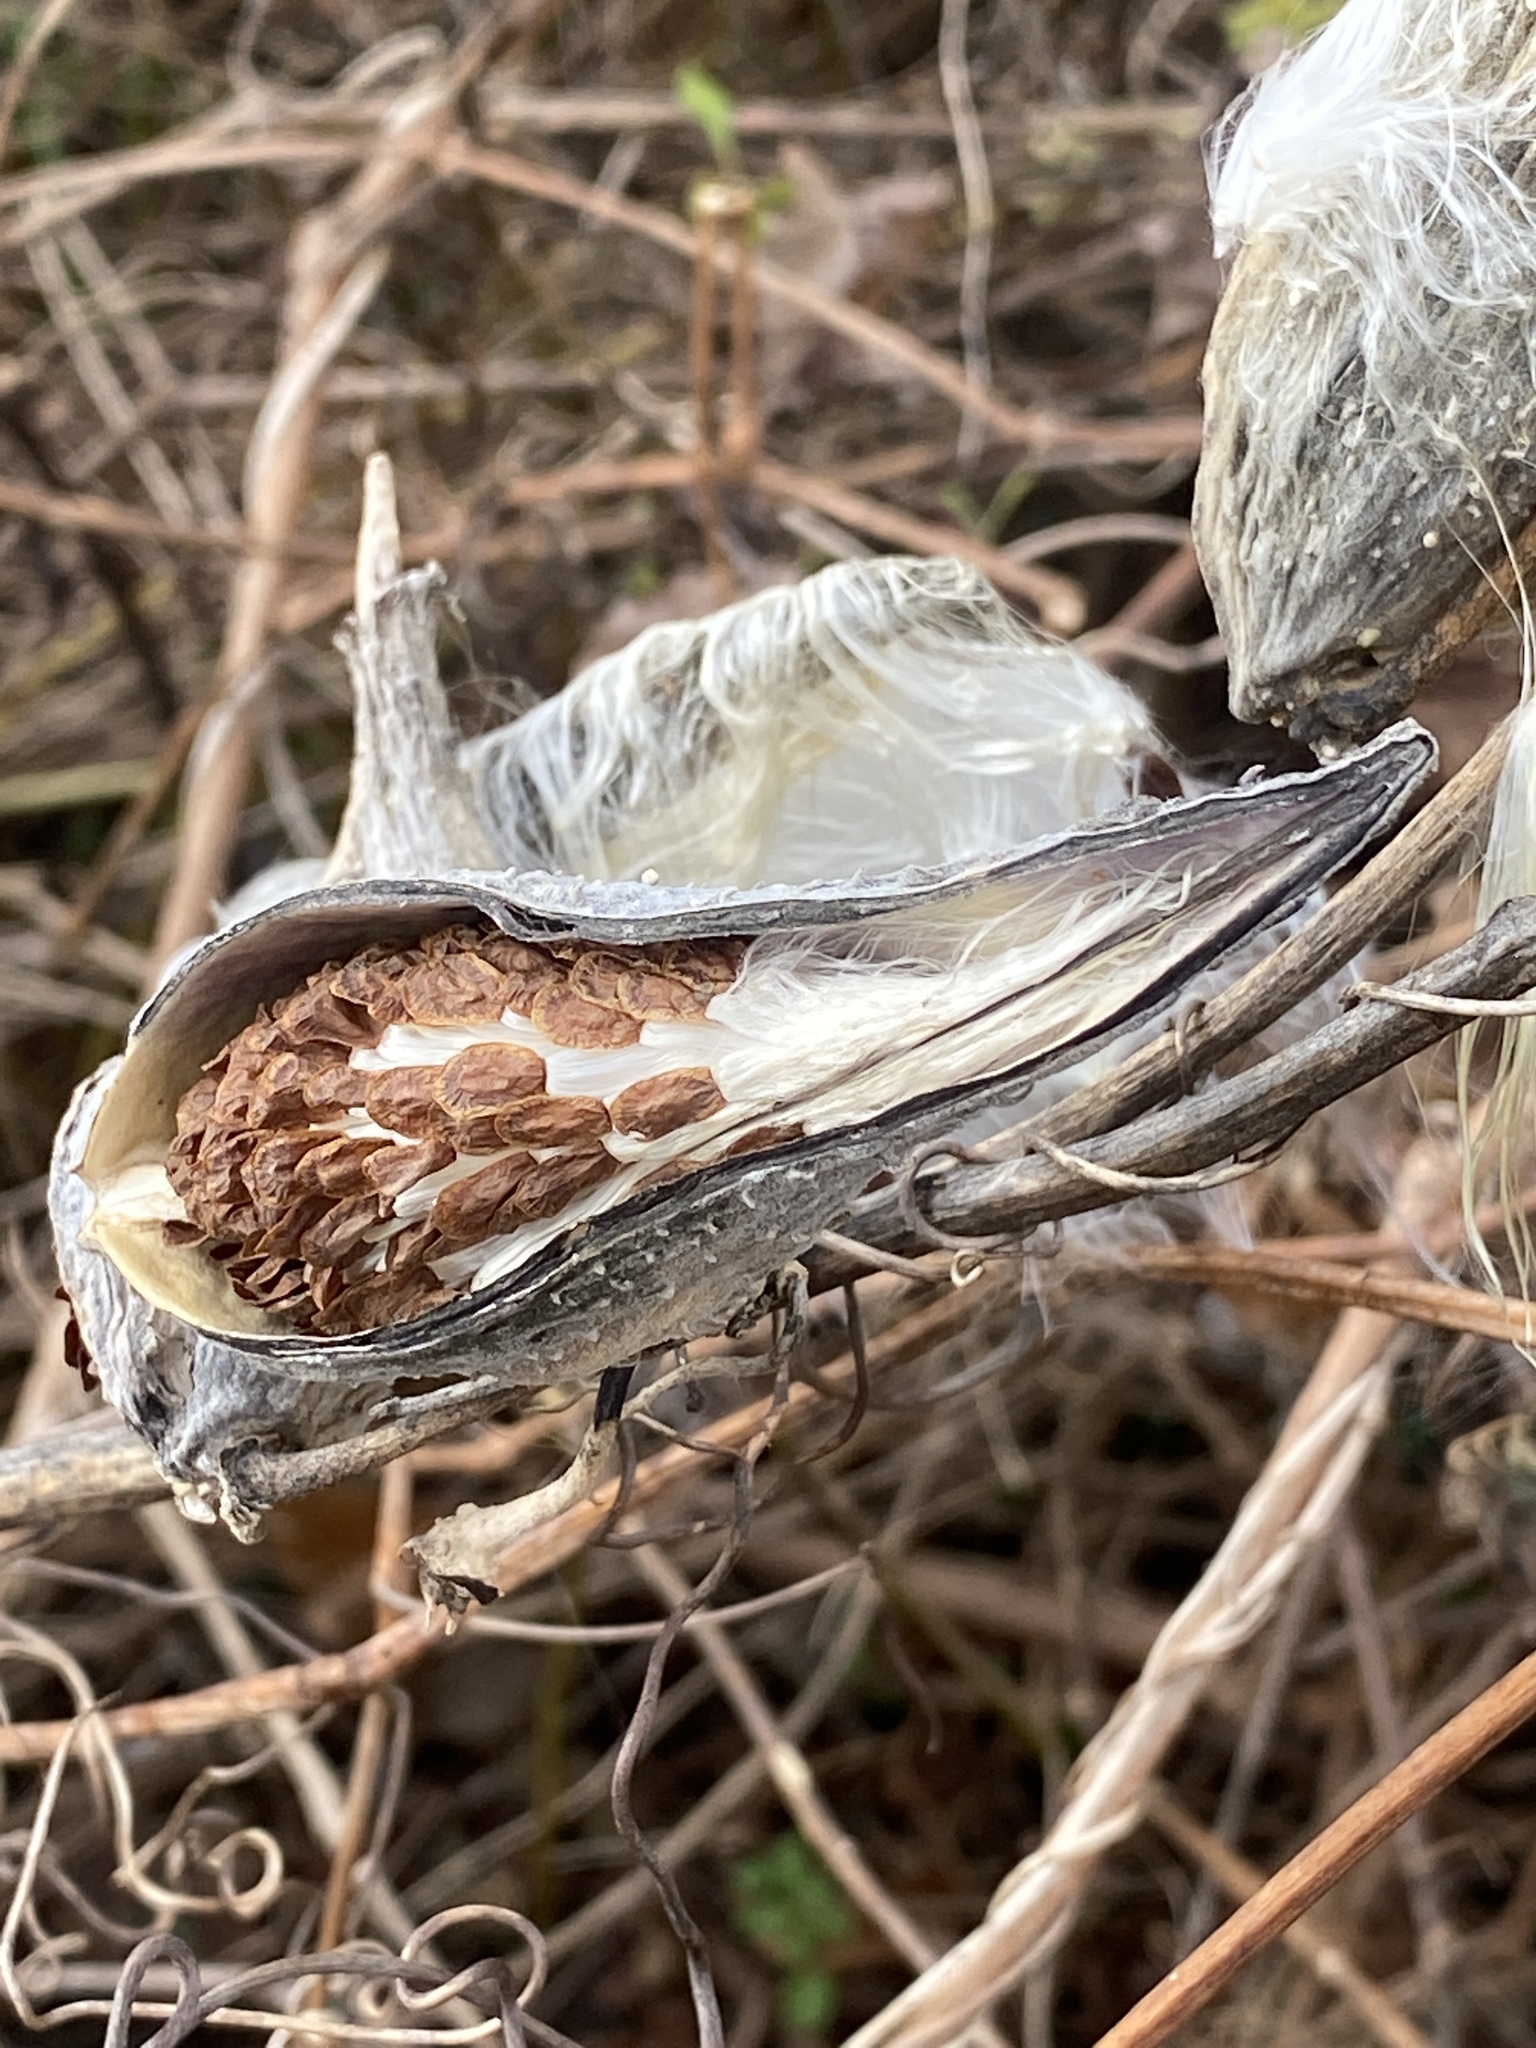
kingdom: Plantae
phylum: Tracheophyta
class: Magnoliopsida
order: Gentianales
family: Apocynaceae
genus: Asclepias
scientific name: Asclepias syriaca
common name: Common milkweed
